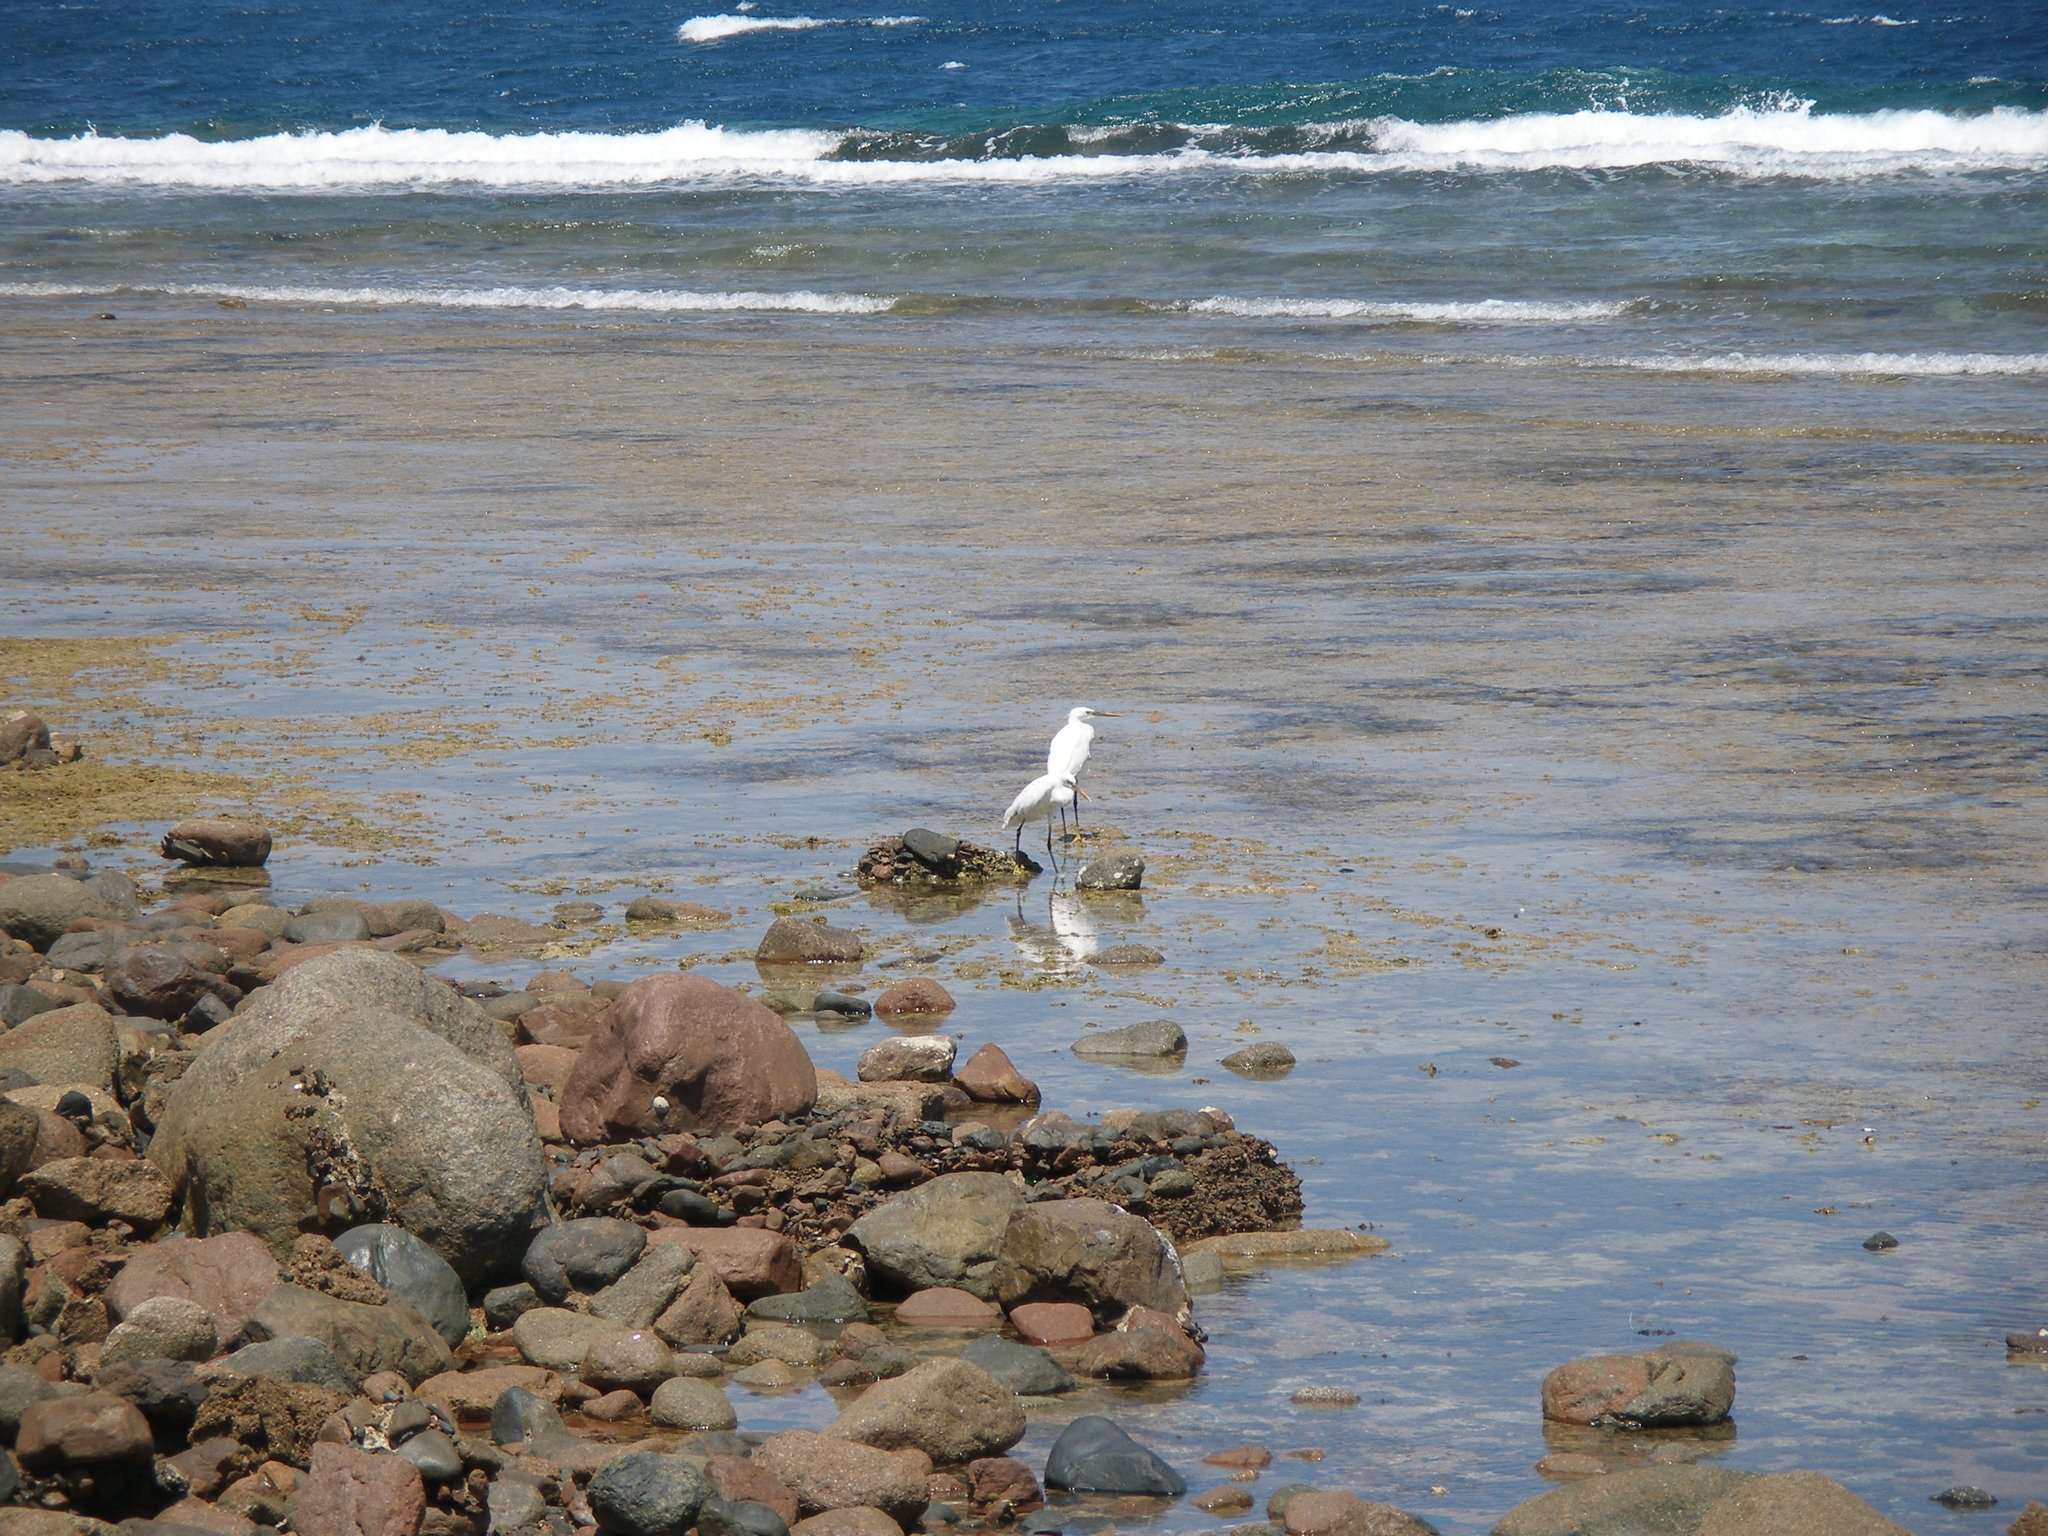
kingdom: Animalia
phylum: Chordata
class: Aves
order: Pelecaniformes
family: Ardeidae
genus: Egretta
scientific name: Egretta gularis
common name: Western reef-heron
